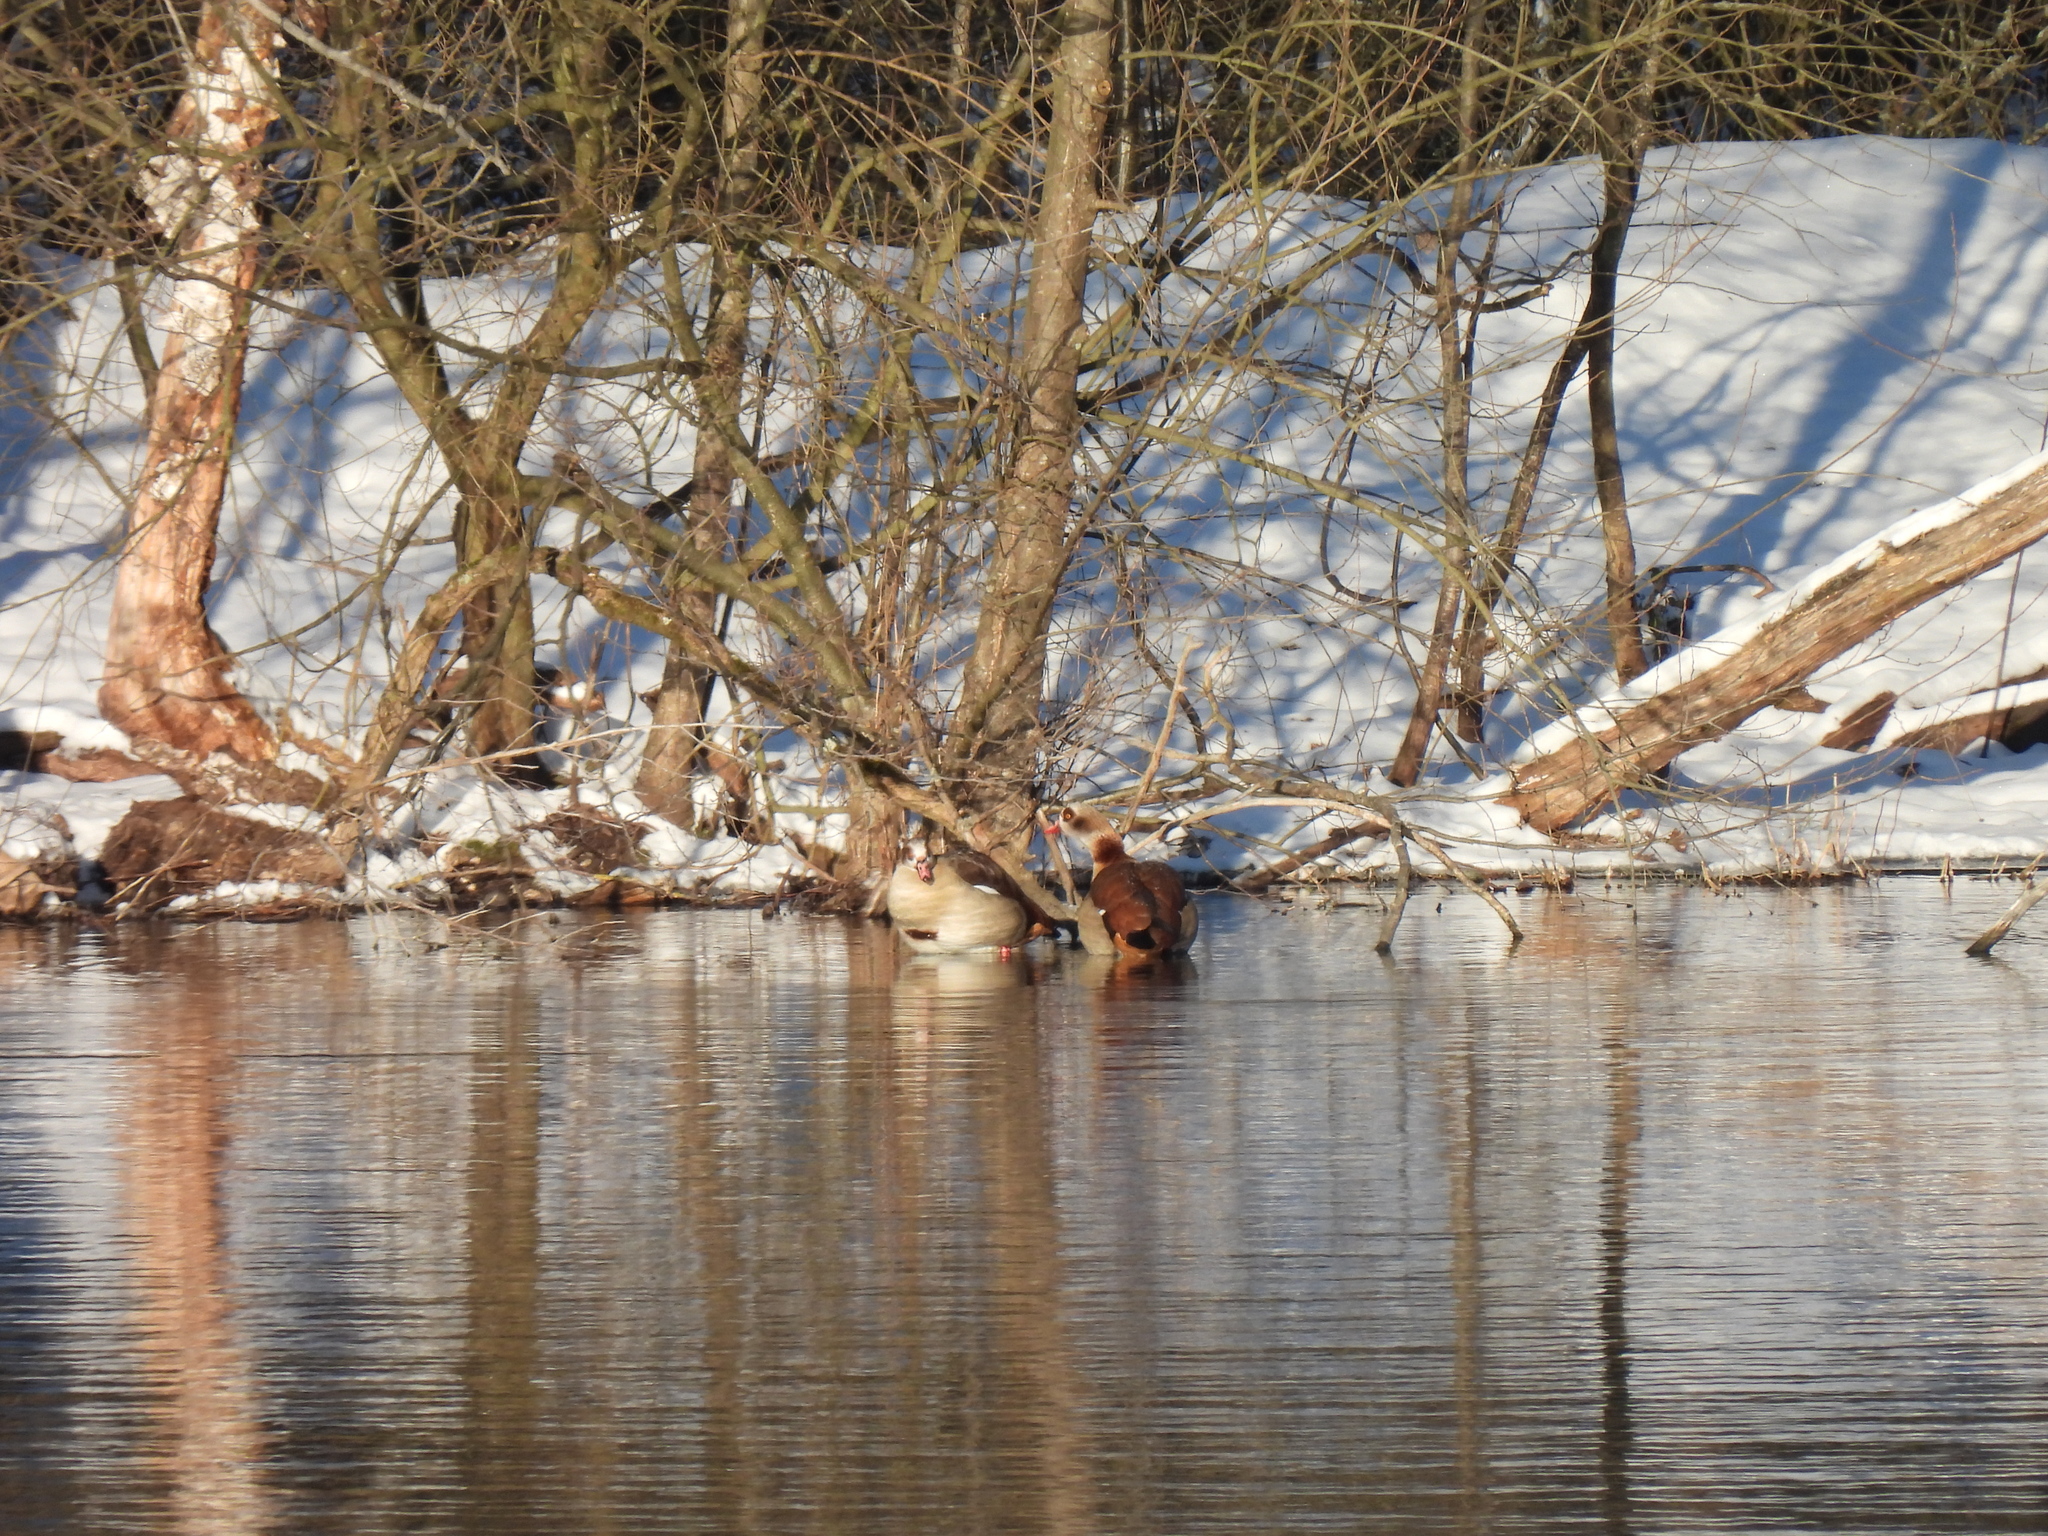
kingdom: Animalia
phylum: Chordata
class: Aves
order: Anseriformes
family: Anatidae
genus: Alopochen
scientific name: Alopochen aegyptiaca
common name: Egyptian goose
